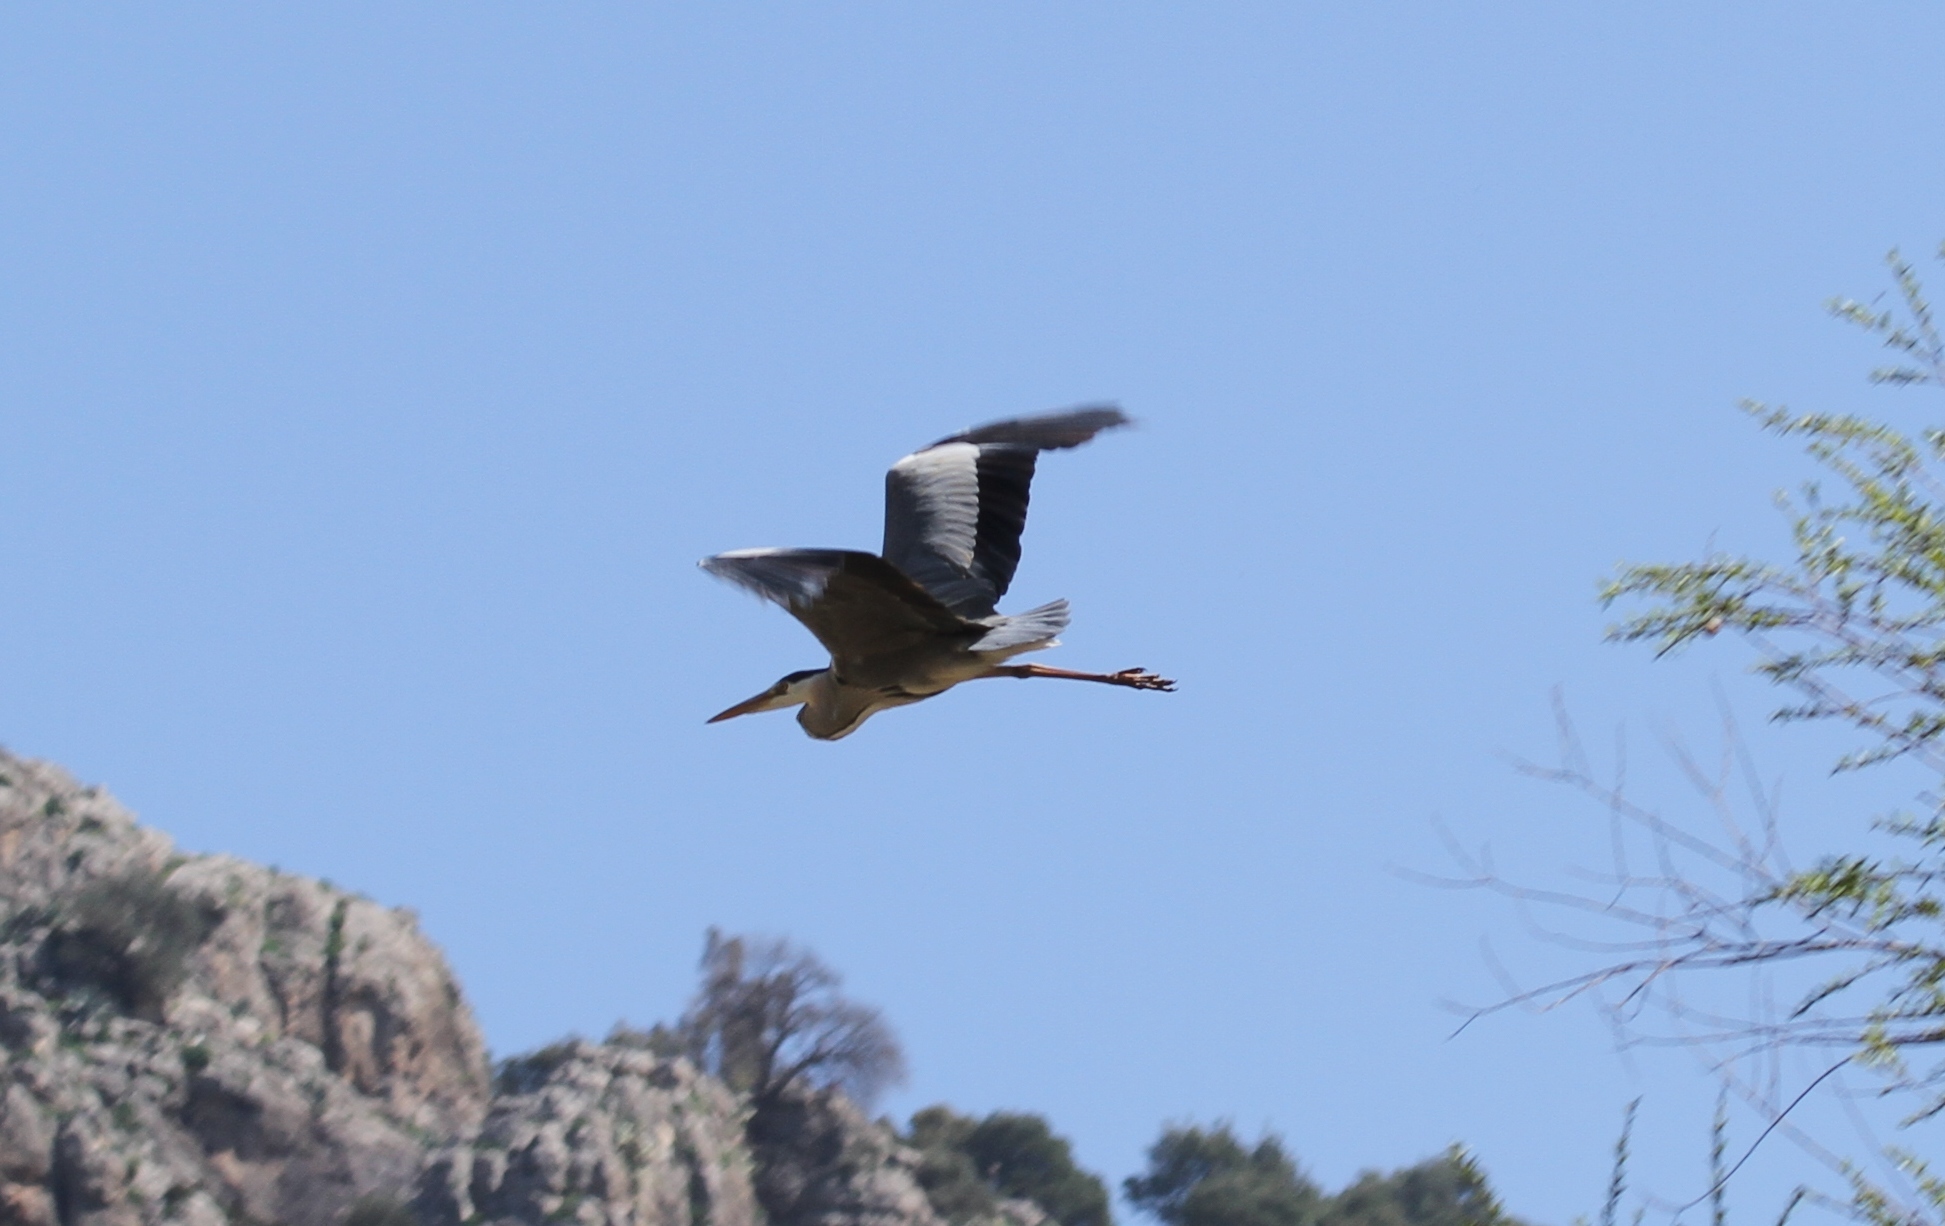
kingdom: Animalia
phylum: Chordata
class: Aves
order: Pelecaniformes
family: Ardeidae
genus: Ardea
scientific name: Ardea cinerea
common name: Grey heron
